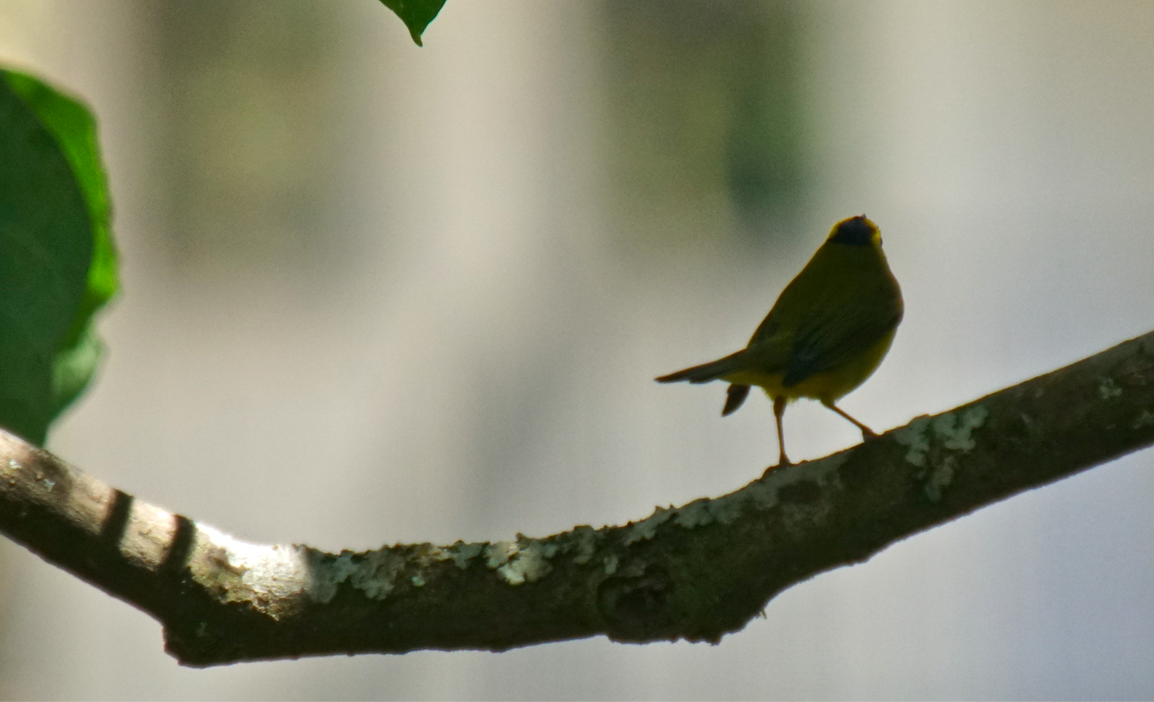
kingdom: Animalia
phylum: Chordata
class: Aves
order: Passeriformes
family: Parulidae
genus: Cardellina
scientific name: Cardellina pusilla
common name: Wilson's warbler
